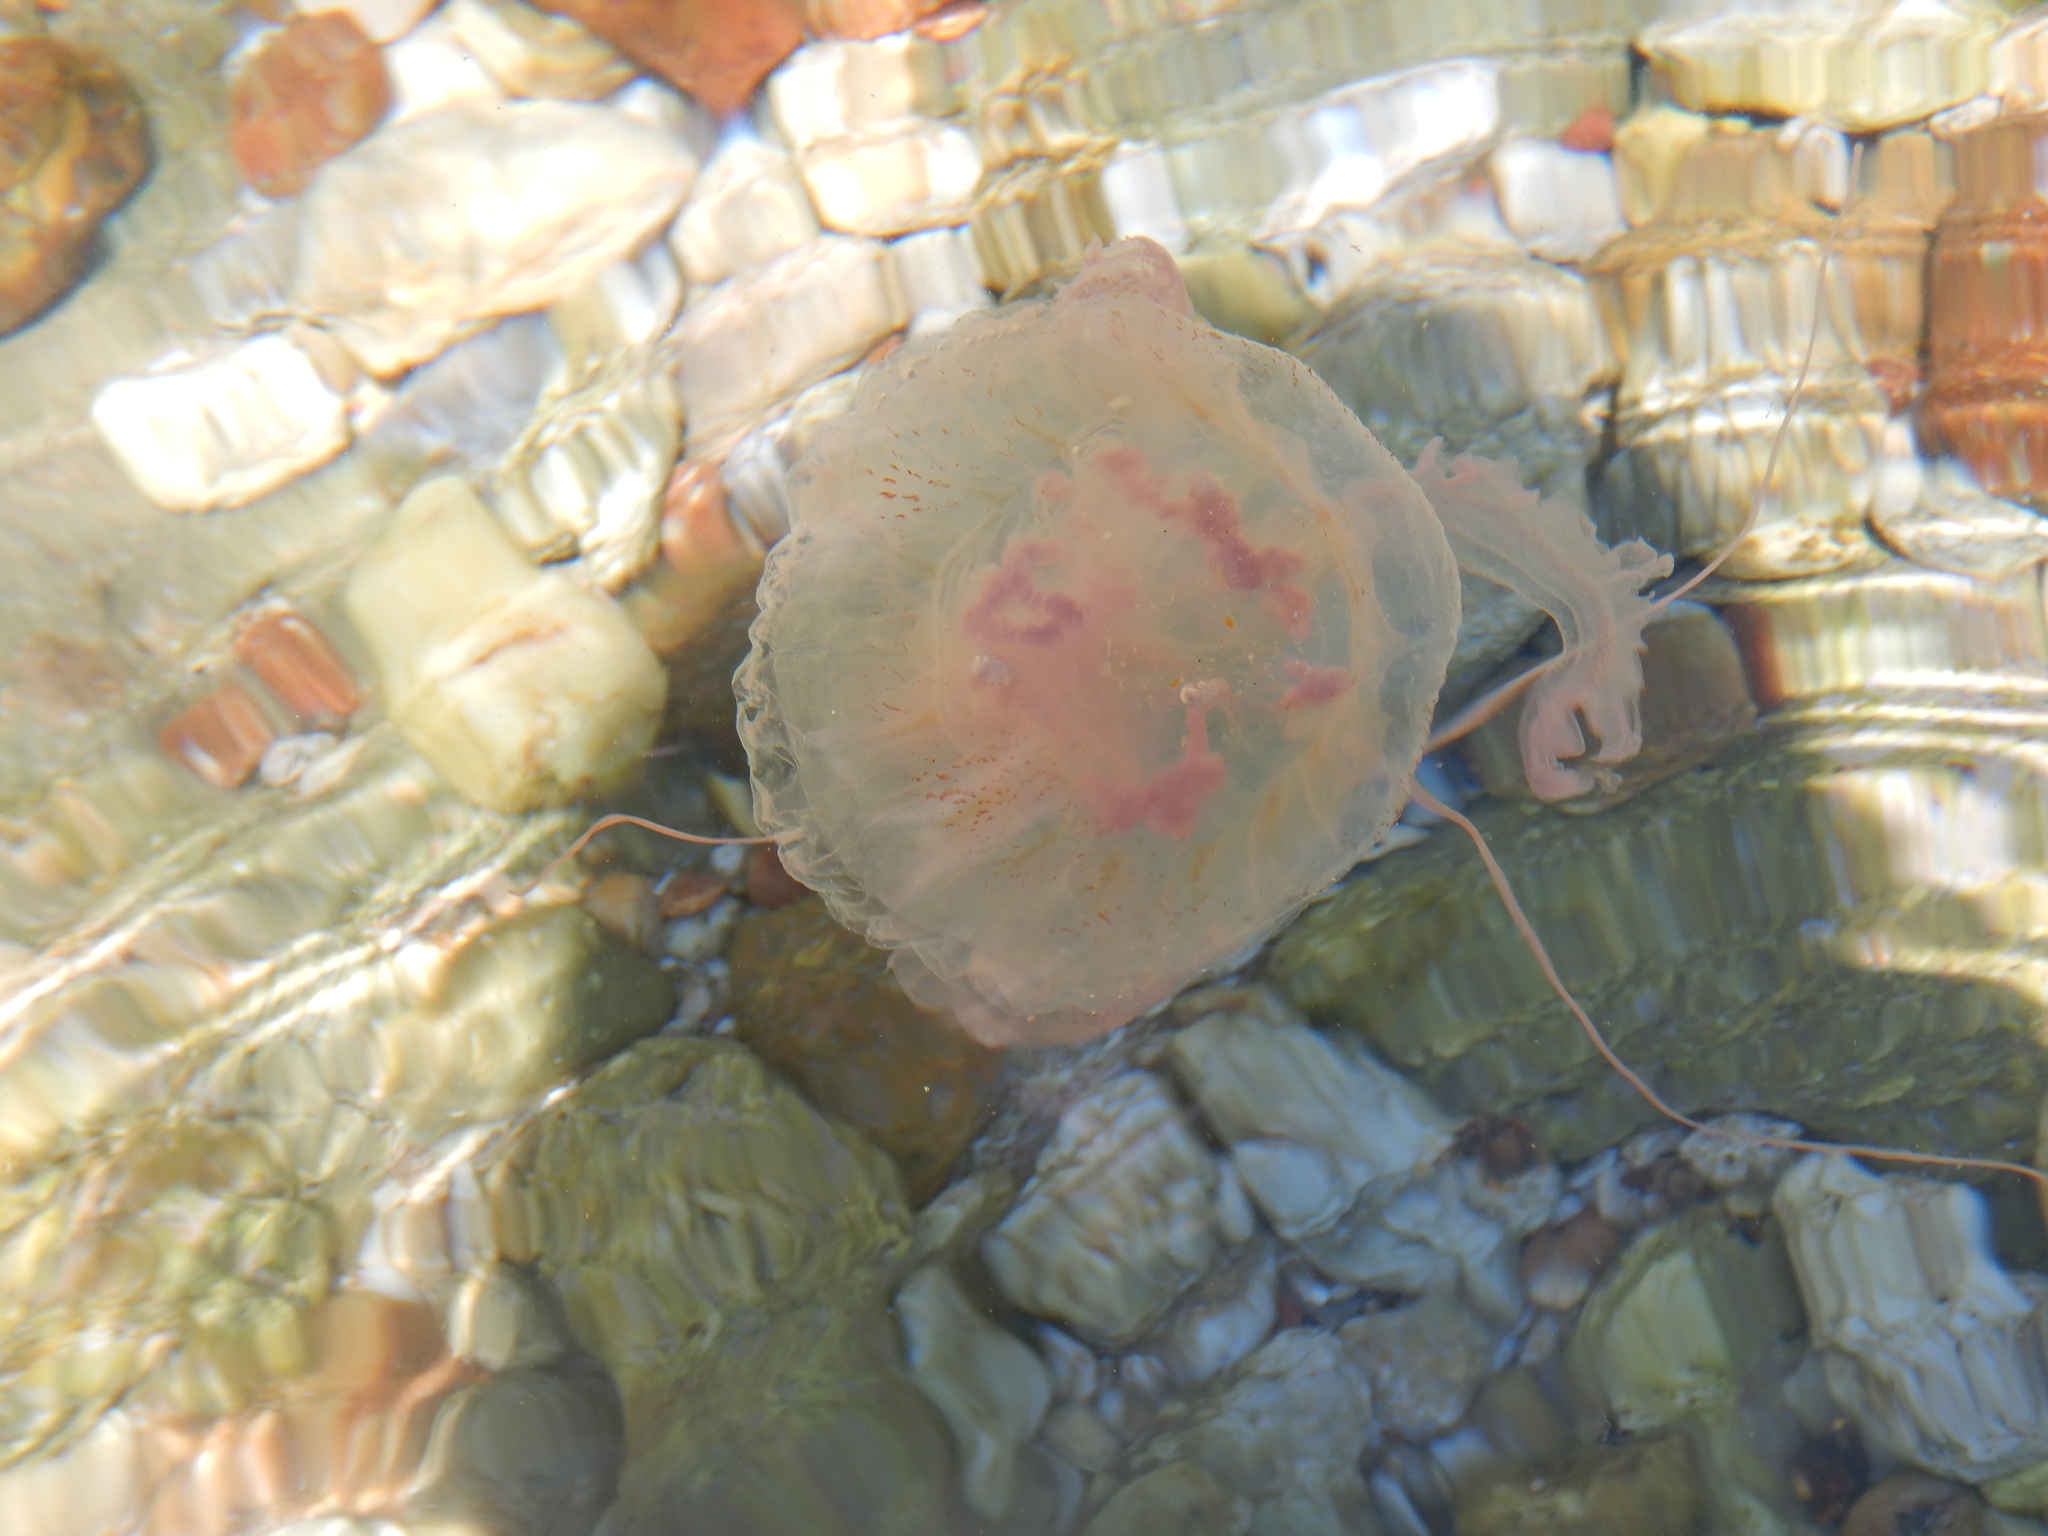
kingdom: Animalia
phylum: Cnidaria
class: Scyphozoa
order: Semaeostomeae
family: Pelagiidae
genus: Pelagia
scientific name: Pelagia noctiluca
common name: Mauve stinger
